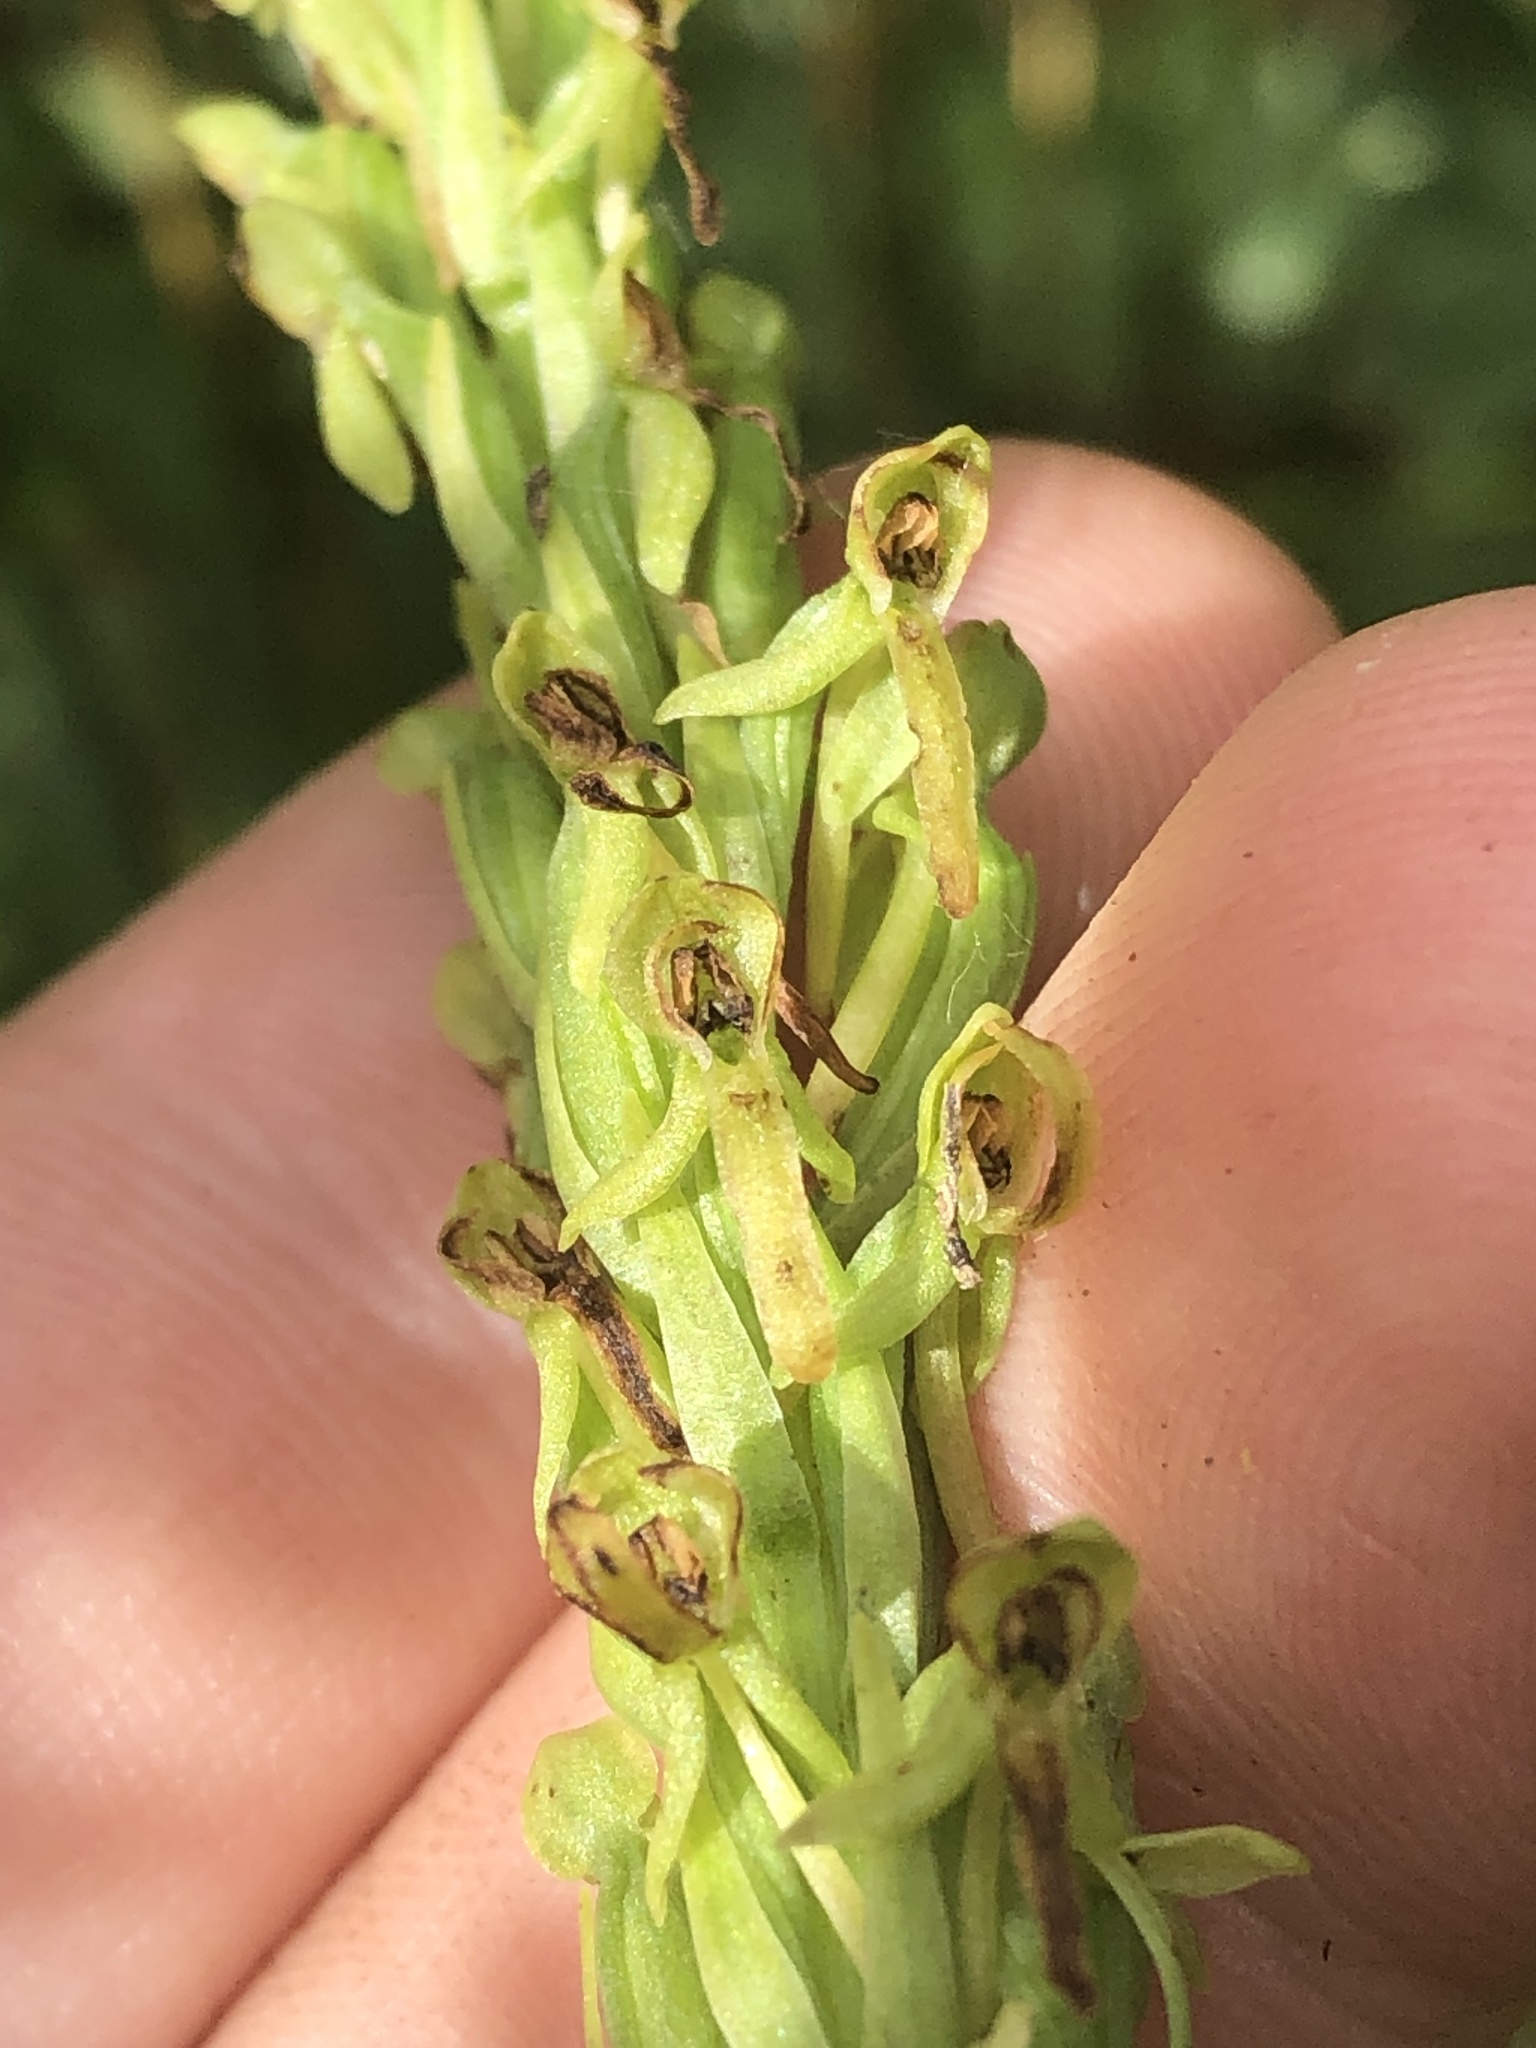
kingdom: Plantae
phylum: Tracheophyta
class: Liliopsida
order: Asparagales
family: Orchidaceae
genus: Platanthera
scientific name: Platanthera sparsiflora
